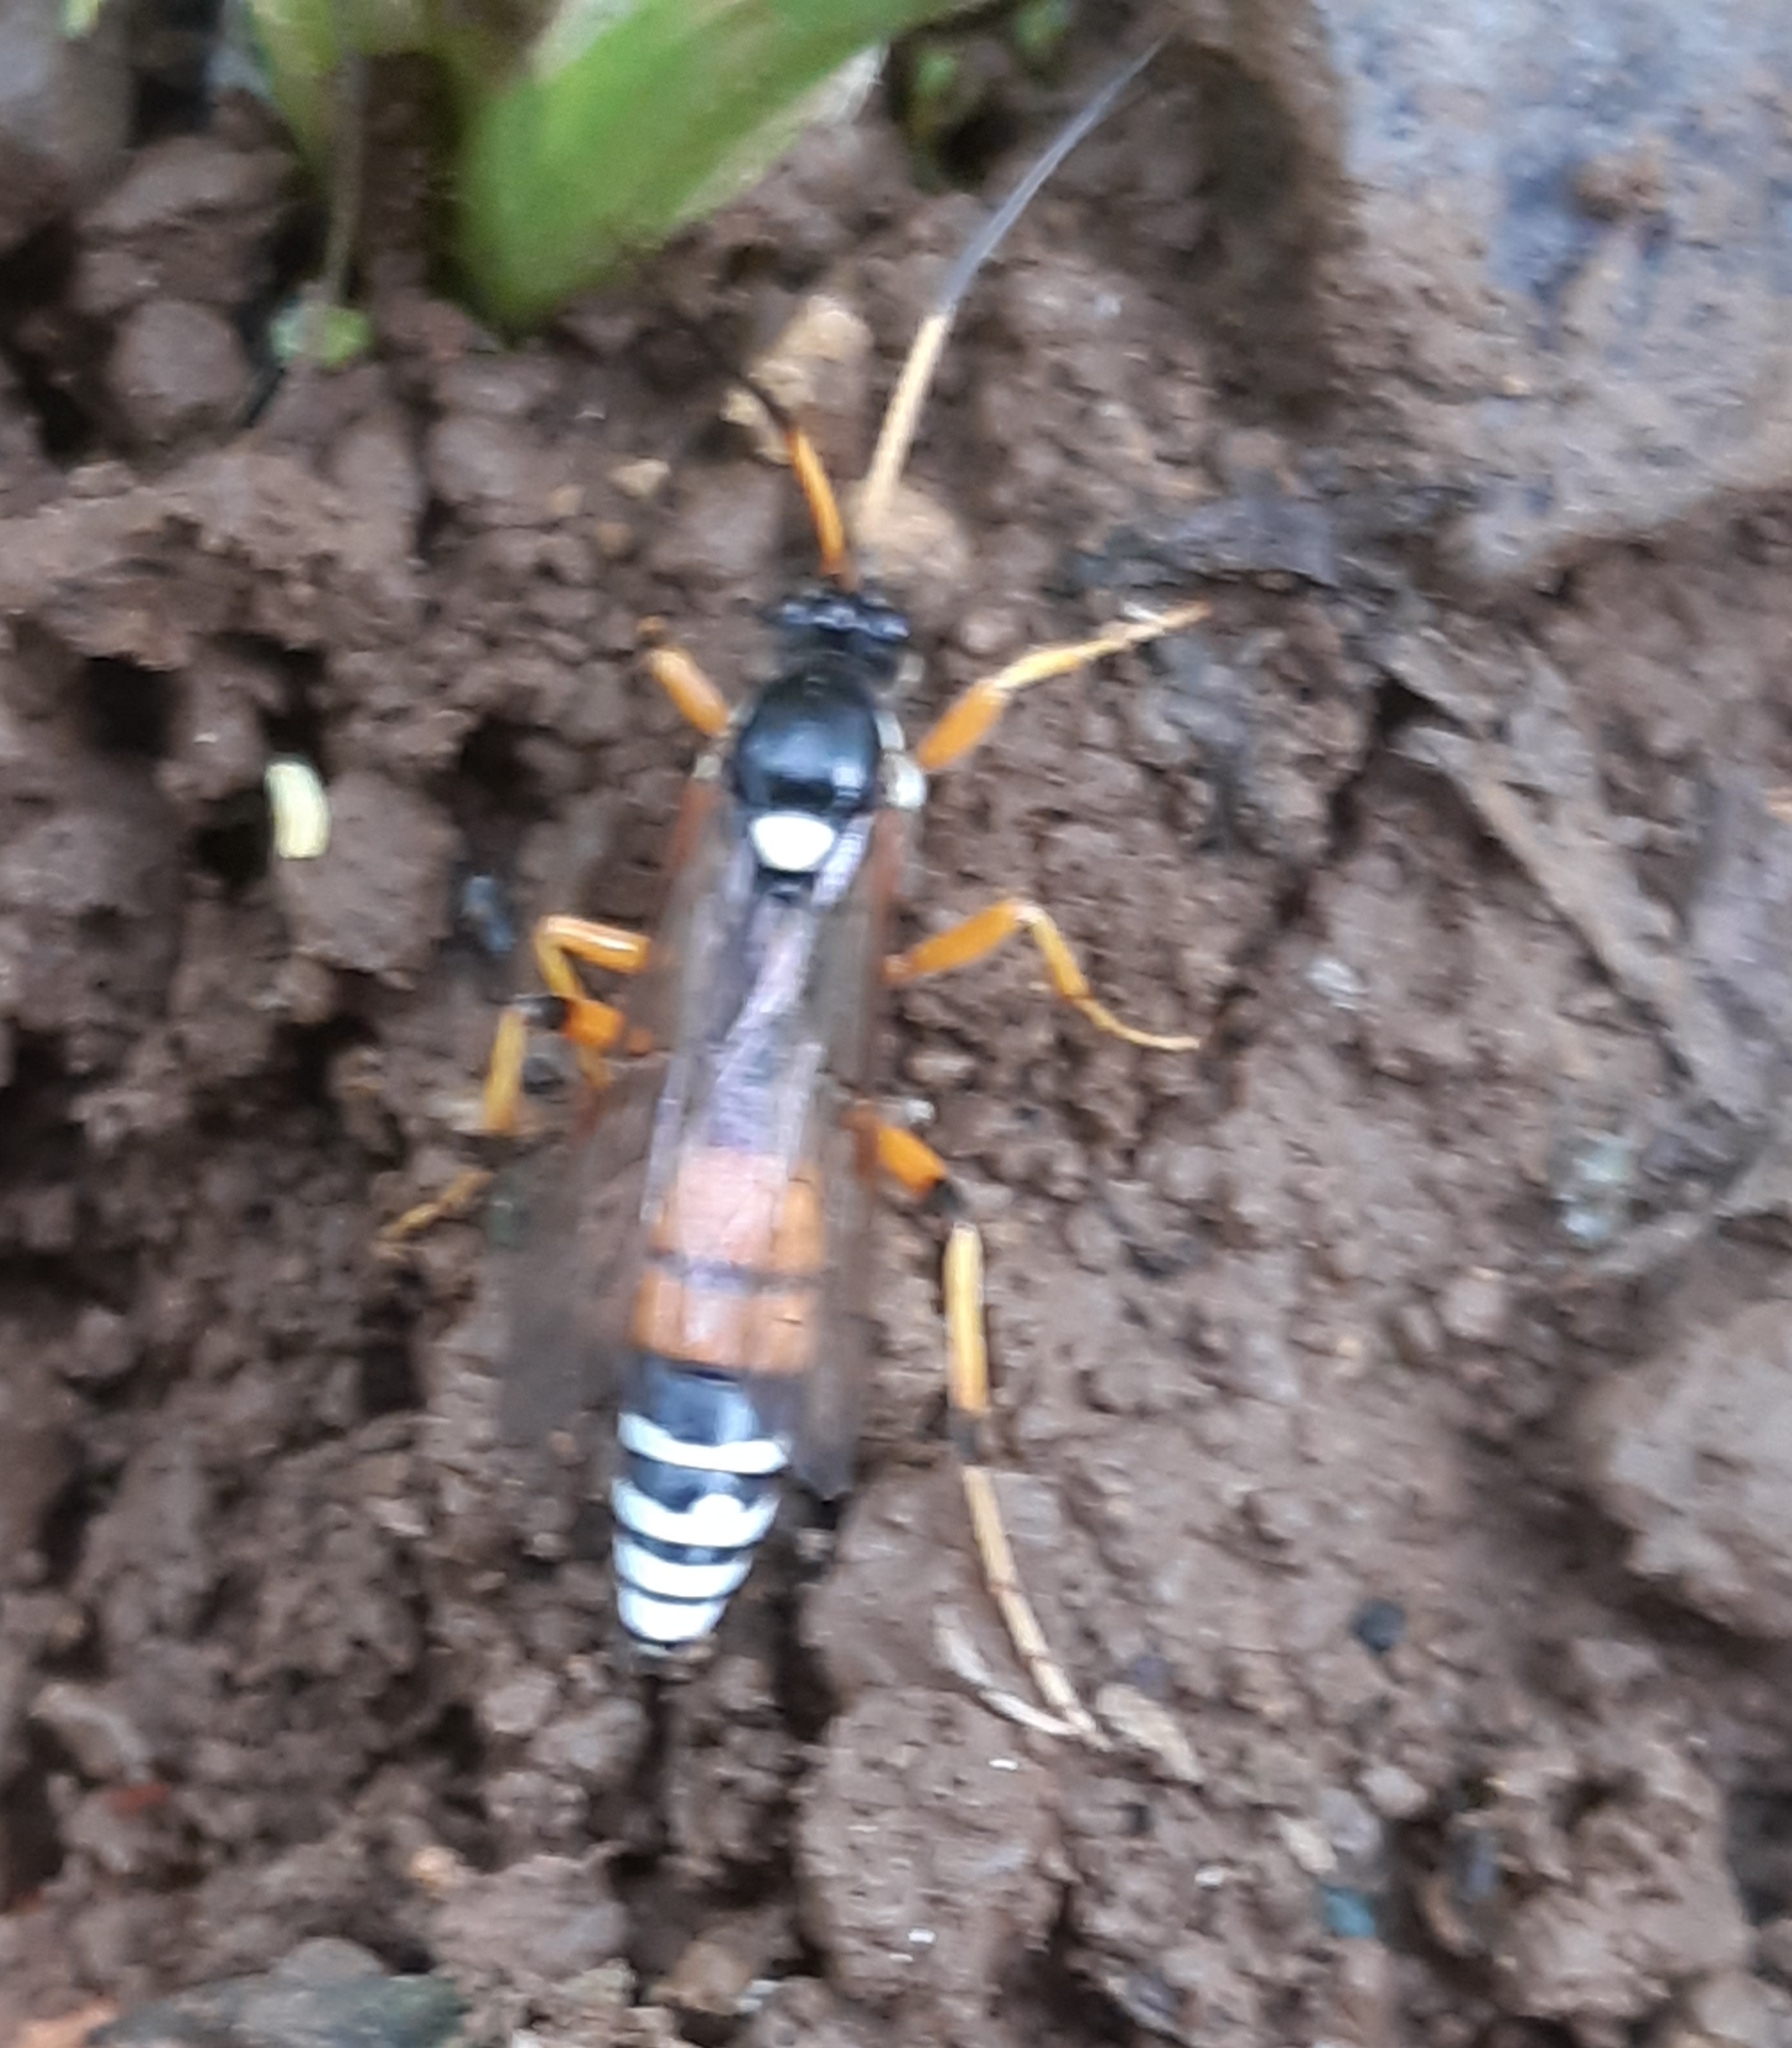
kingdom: Animalia
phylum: Arthropoda
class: Insecta
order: Hymenoptera
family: Ichneumonidae
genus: Eutanyacra
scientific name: Eutanyacra picta
